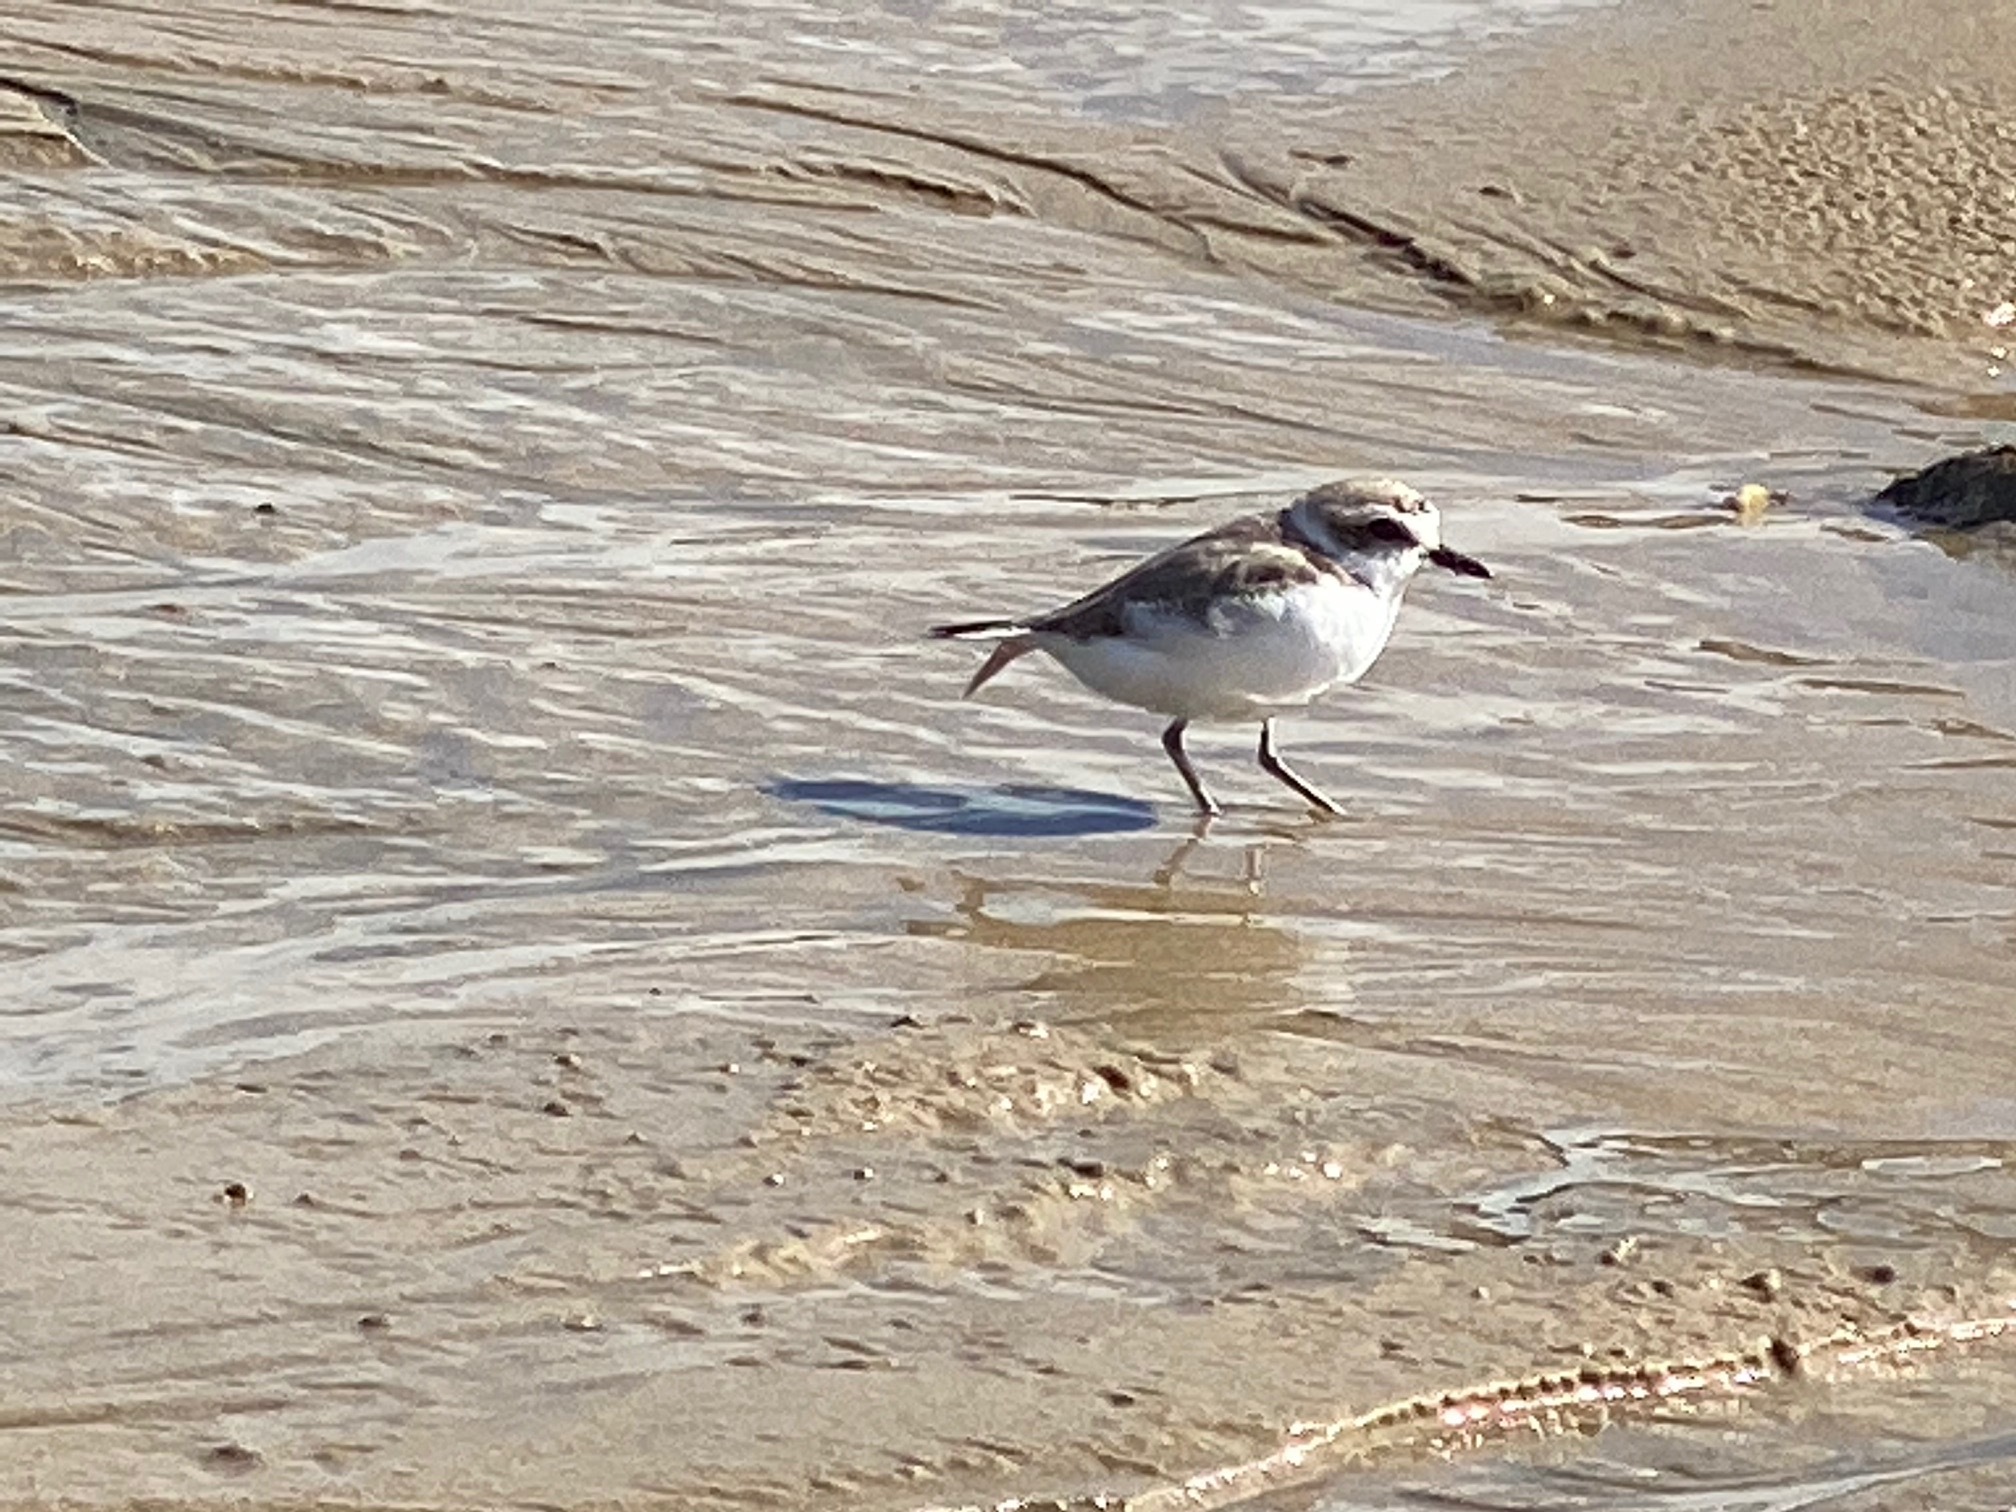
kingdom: Animalia
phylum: Chordata
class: Aves
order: Charadriiformes
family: Charadriidae
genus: Anarhynchus
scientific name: Anarhynchus
